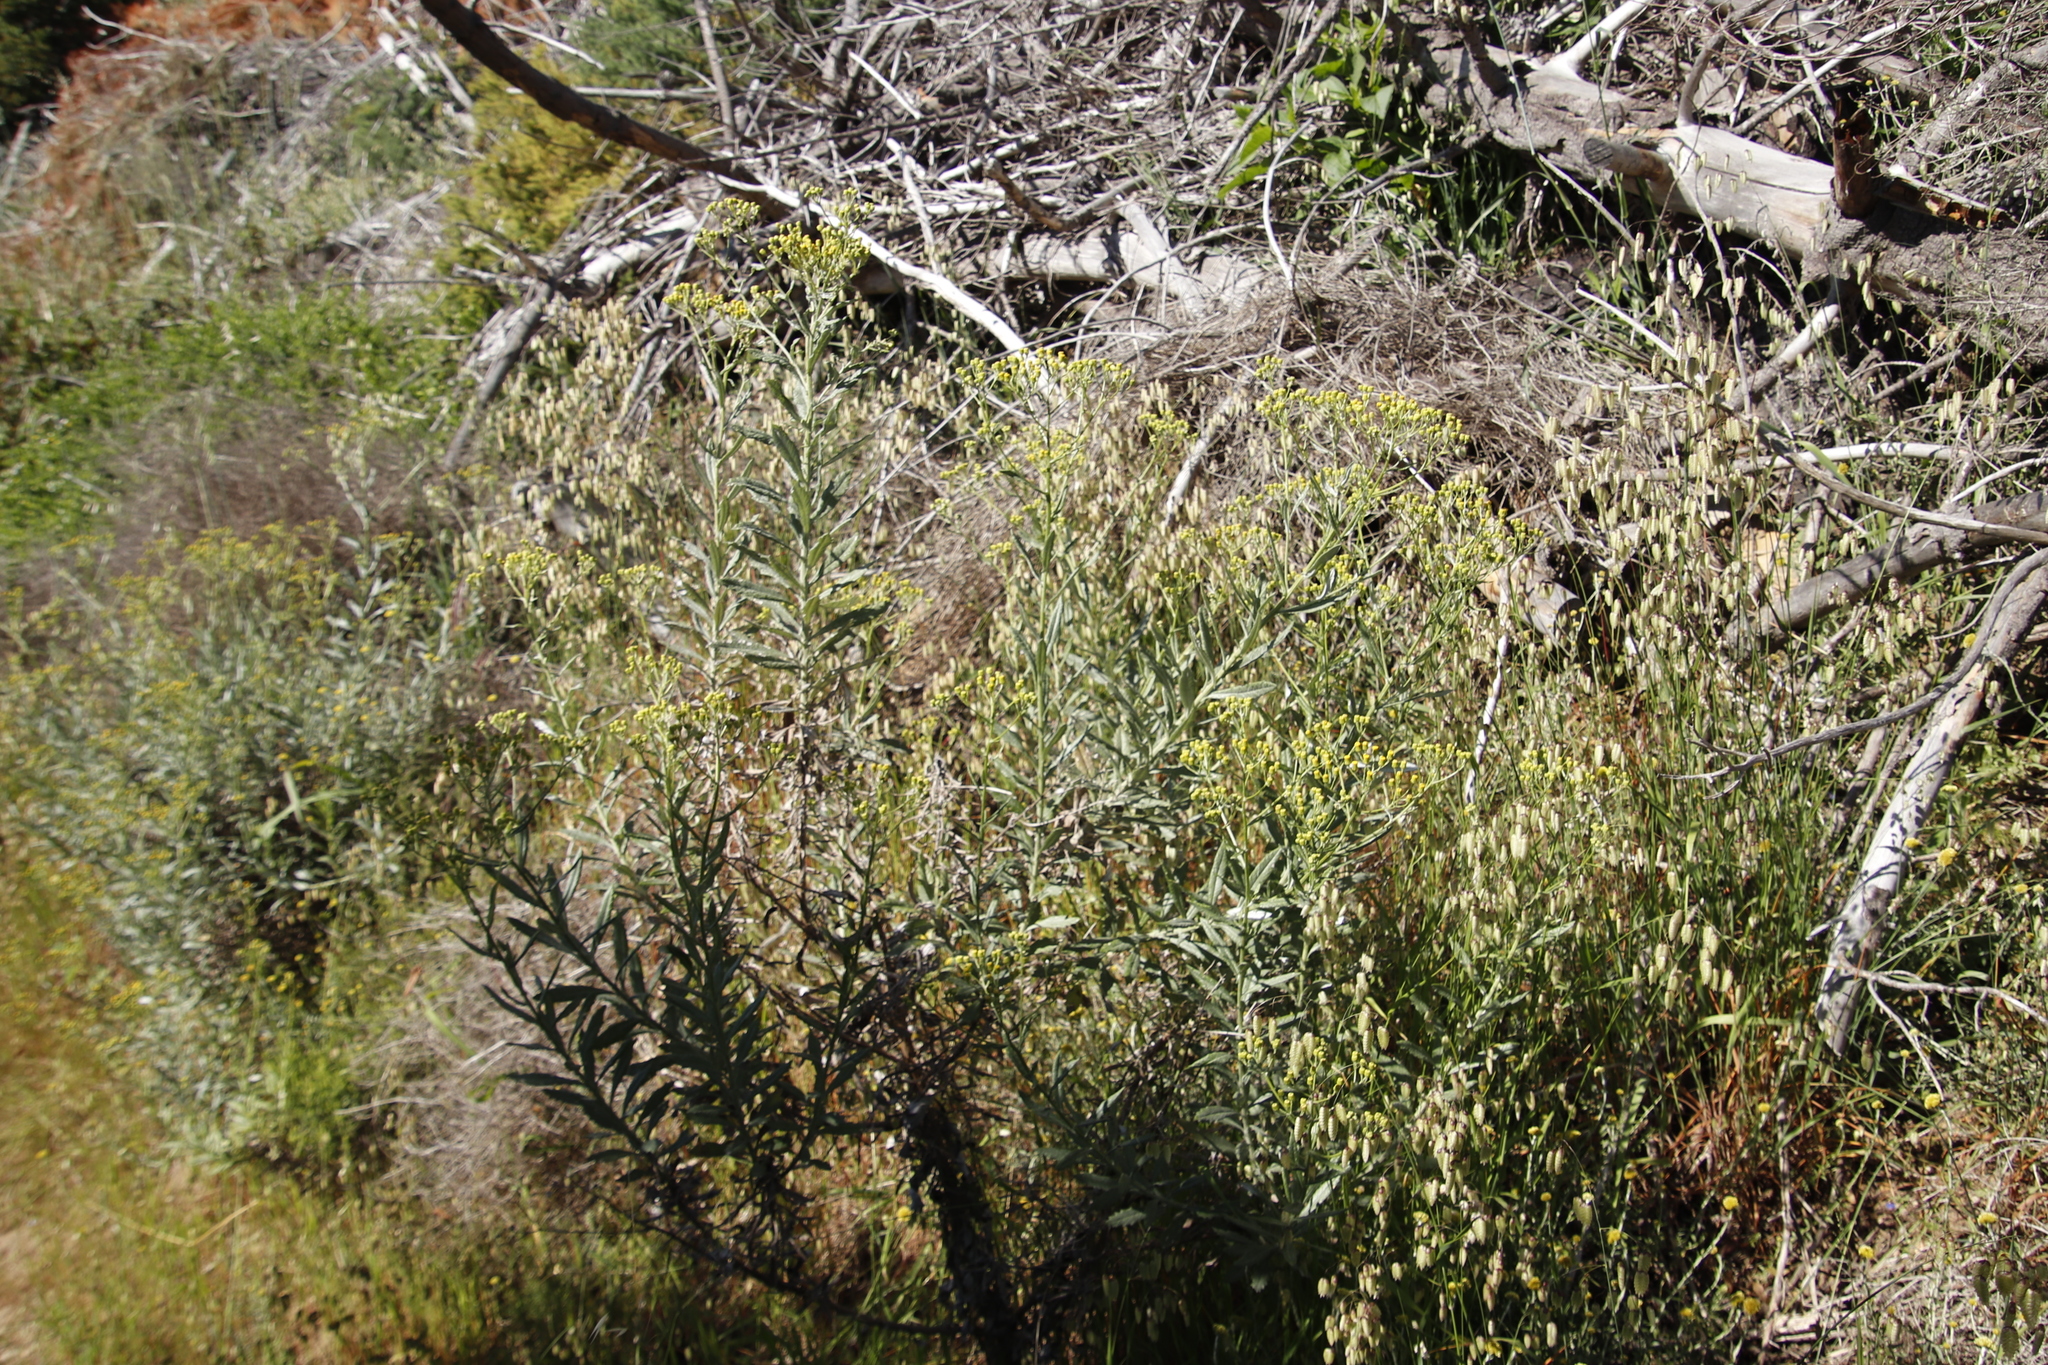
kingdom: Plantae
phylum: Tracheophyta
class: Magnoliopsida
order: Asterales
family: Asteraceae
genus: Senecio
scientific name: Senecio pterophorus
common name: Shoddy ragwort
